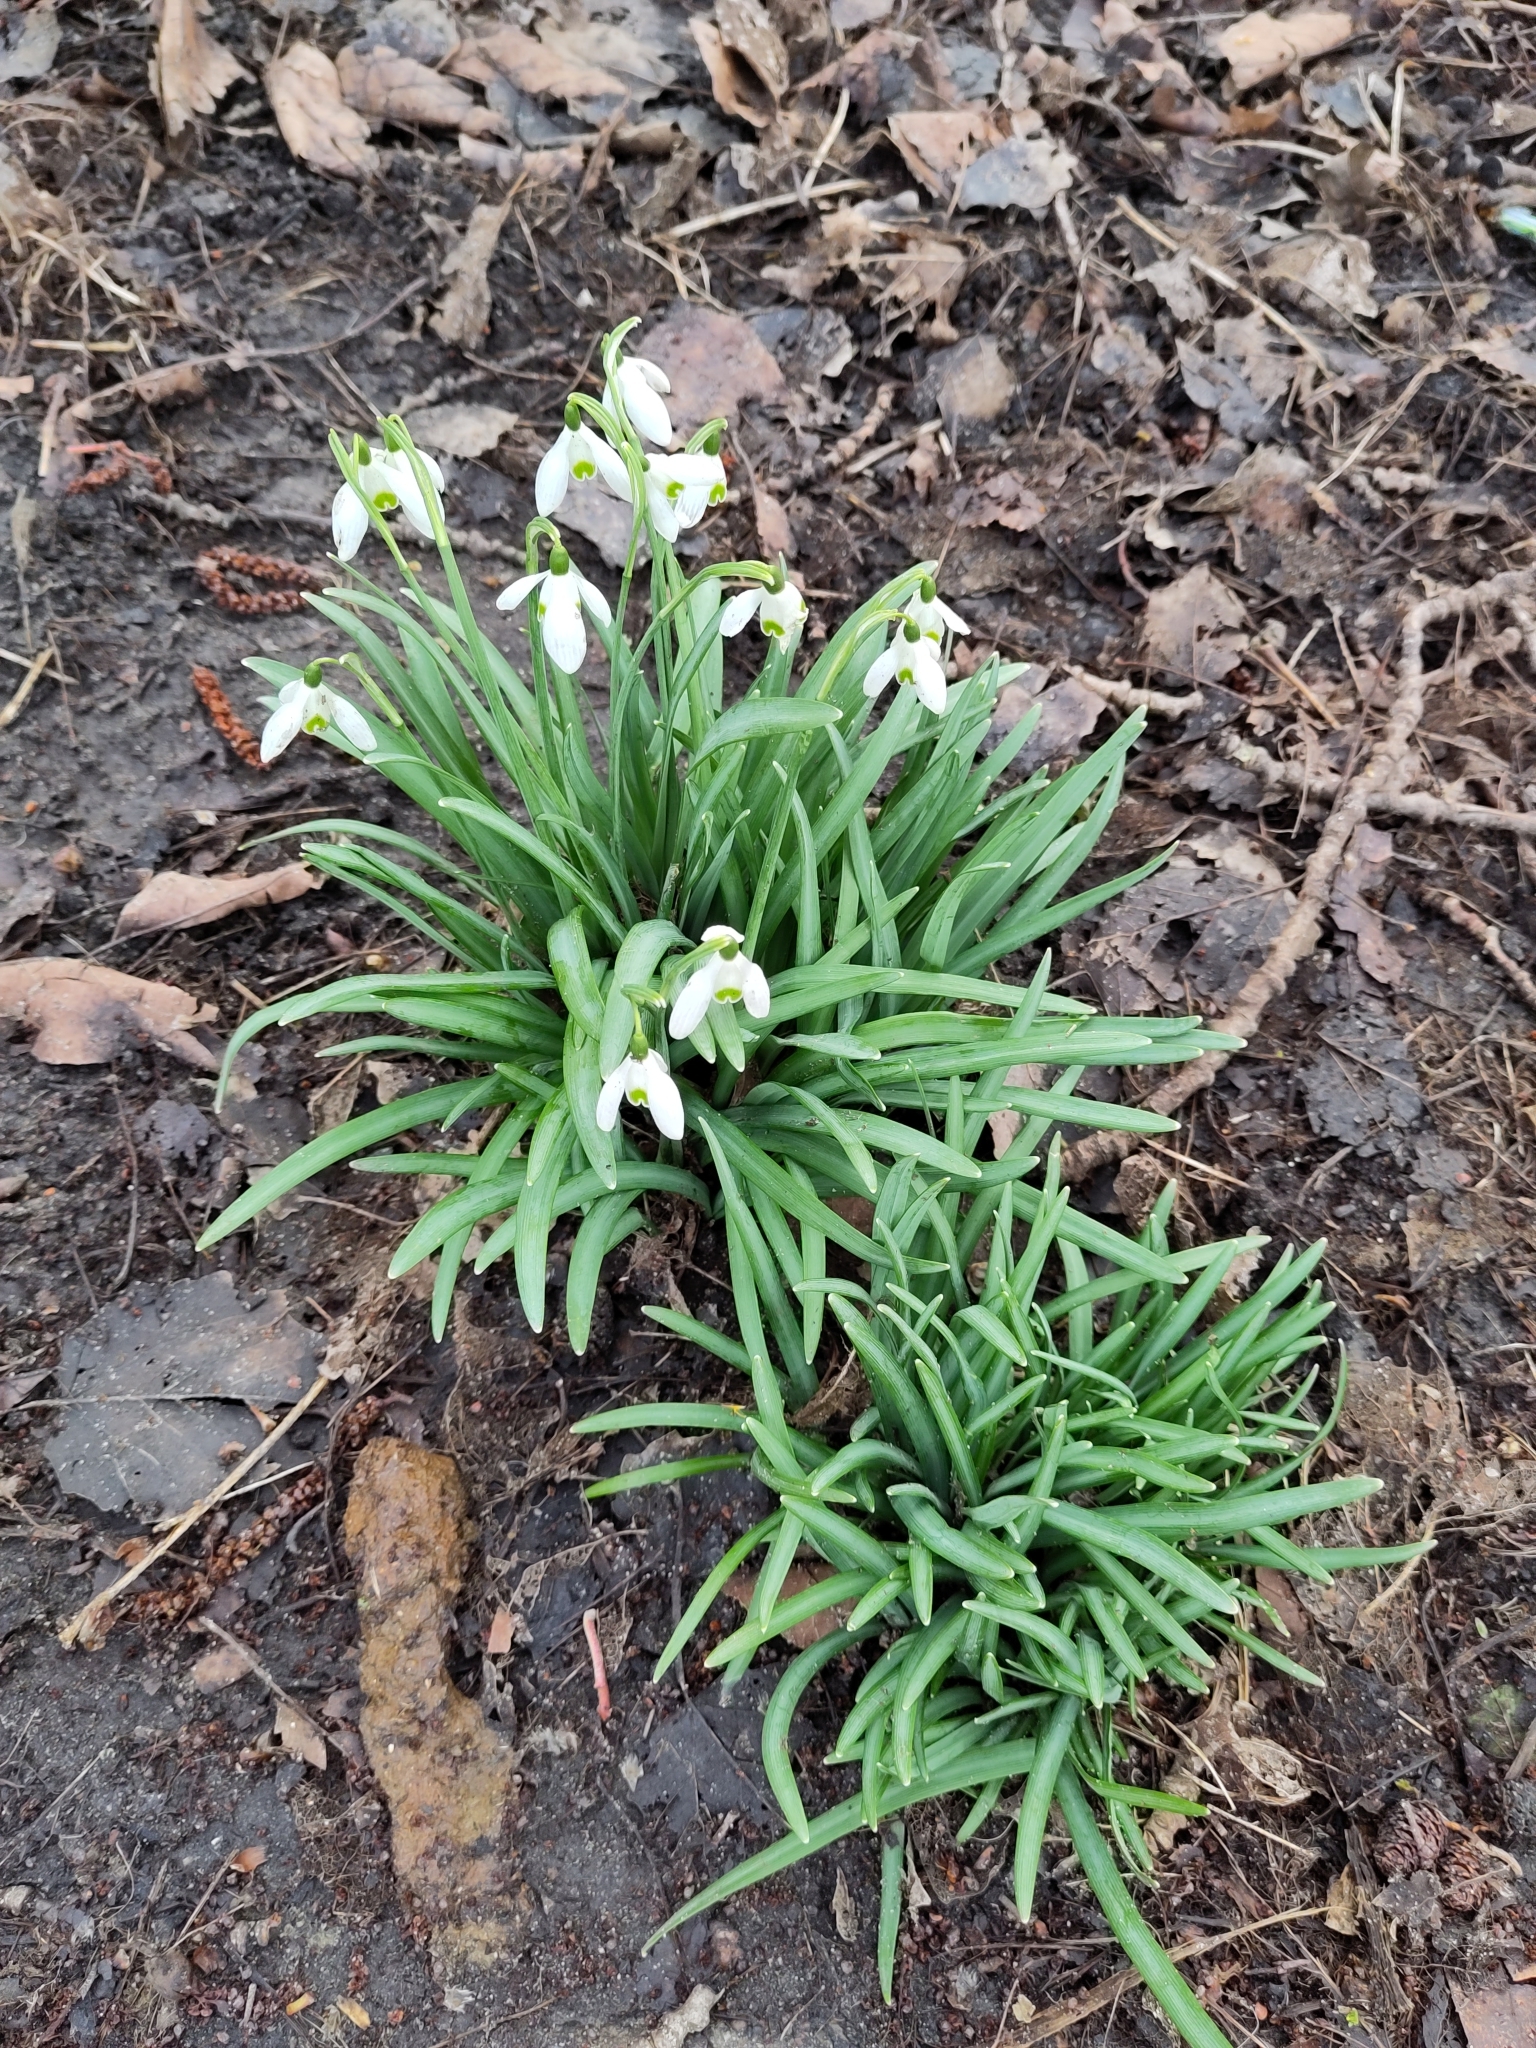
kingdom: Plantae
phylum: Tracheophyta
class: Liliopsida
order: Asparagales
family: Amaryllidaceae
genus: Galanthus
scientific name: Galanthus nivalis
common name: Snowdrop
